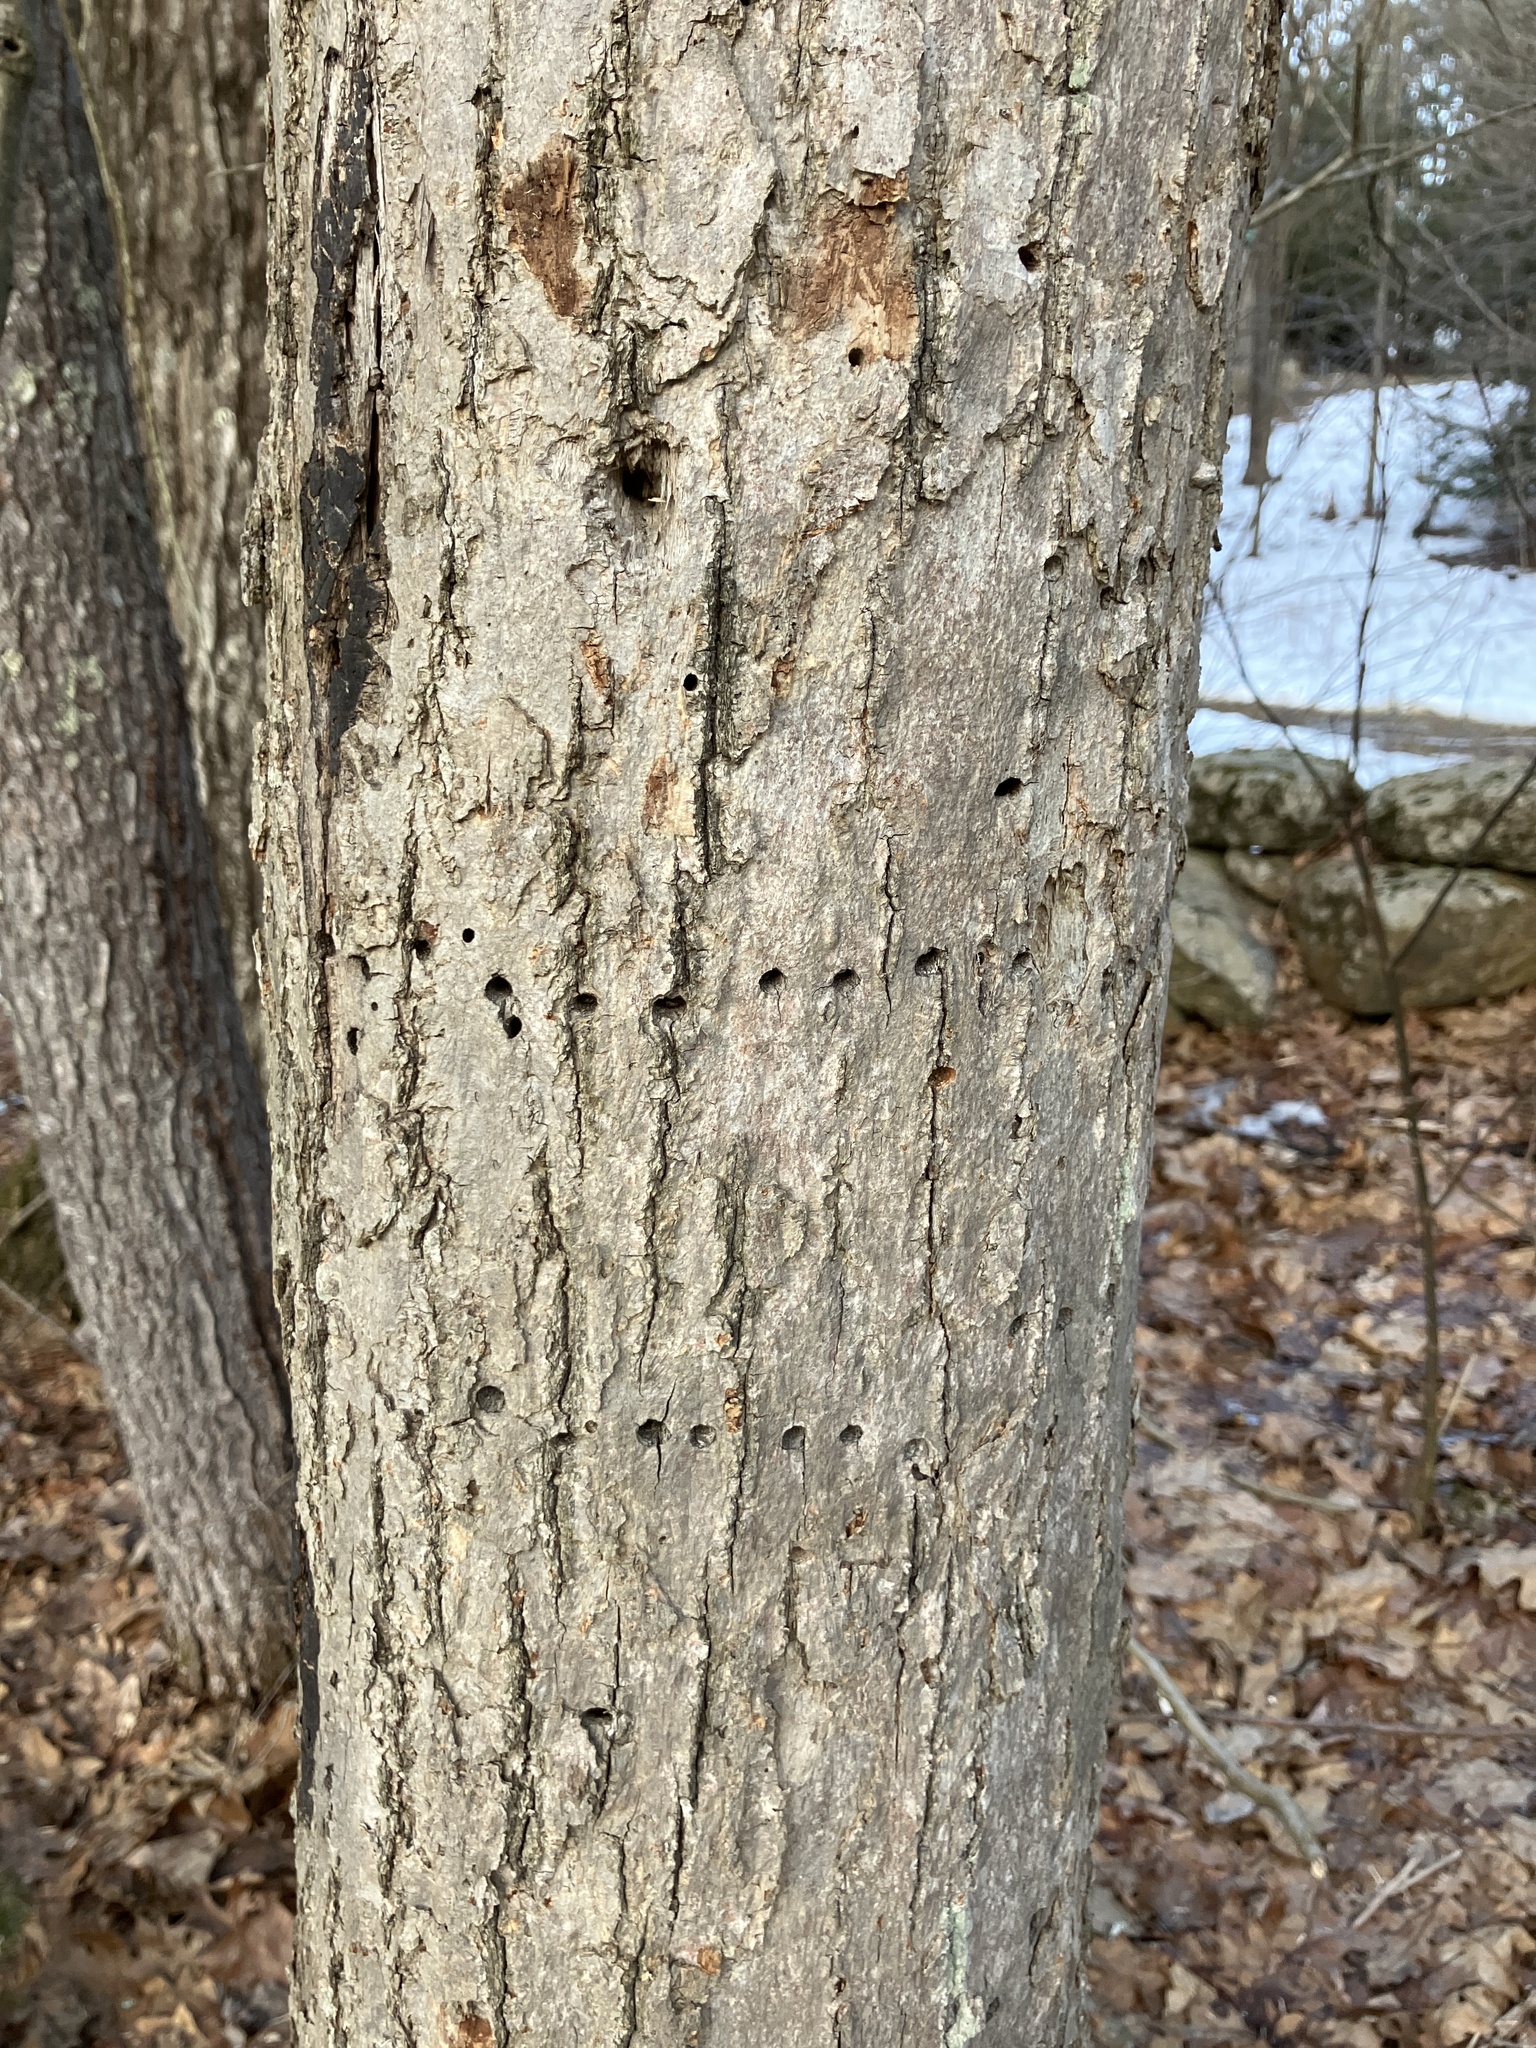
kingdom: Animalia
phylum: Chordata
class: Aves
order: Piciformes
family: Picidae
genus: Sphyrapicus
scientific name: Sphyrapicus varius
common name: Yellow-bellied sapsucker
